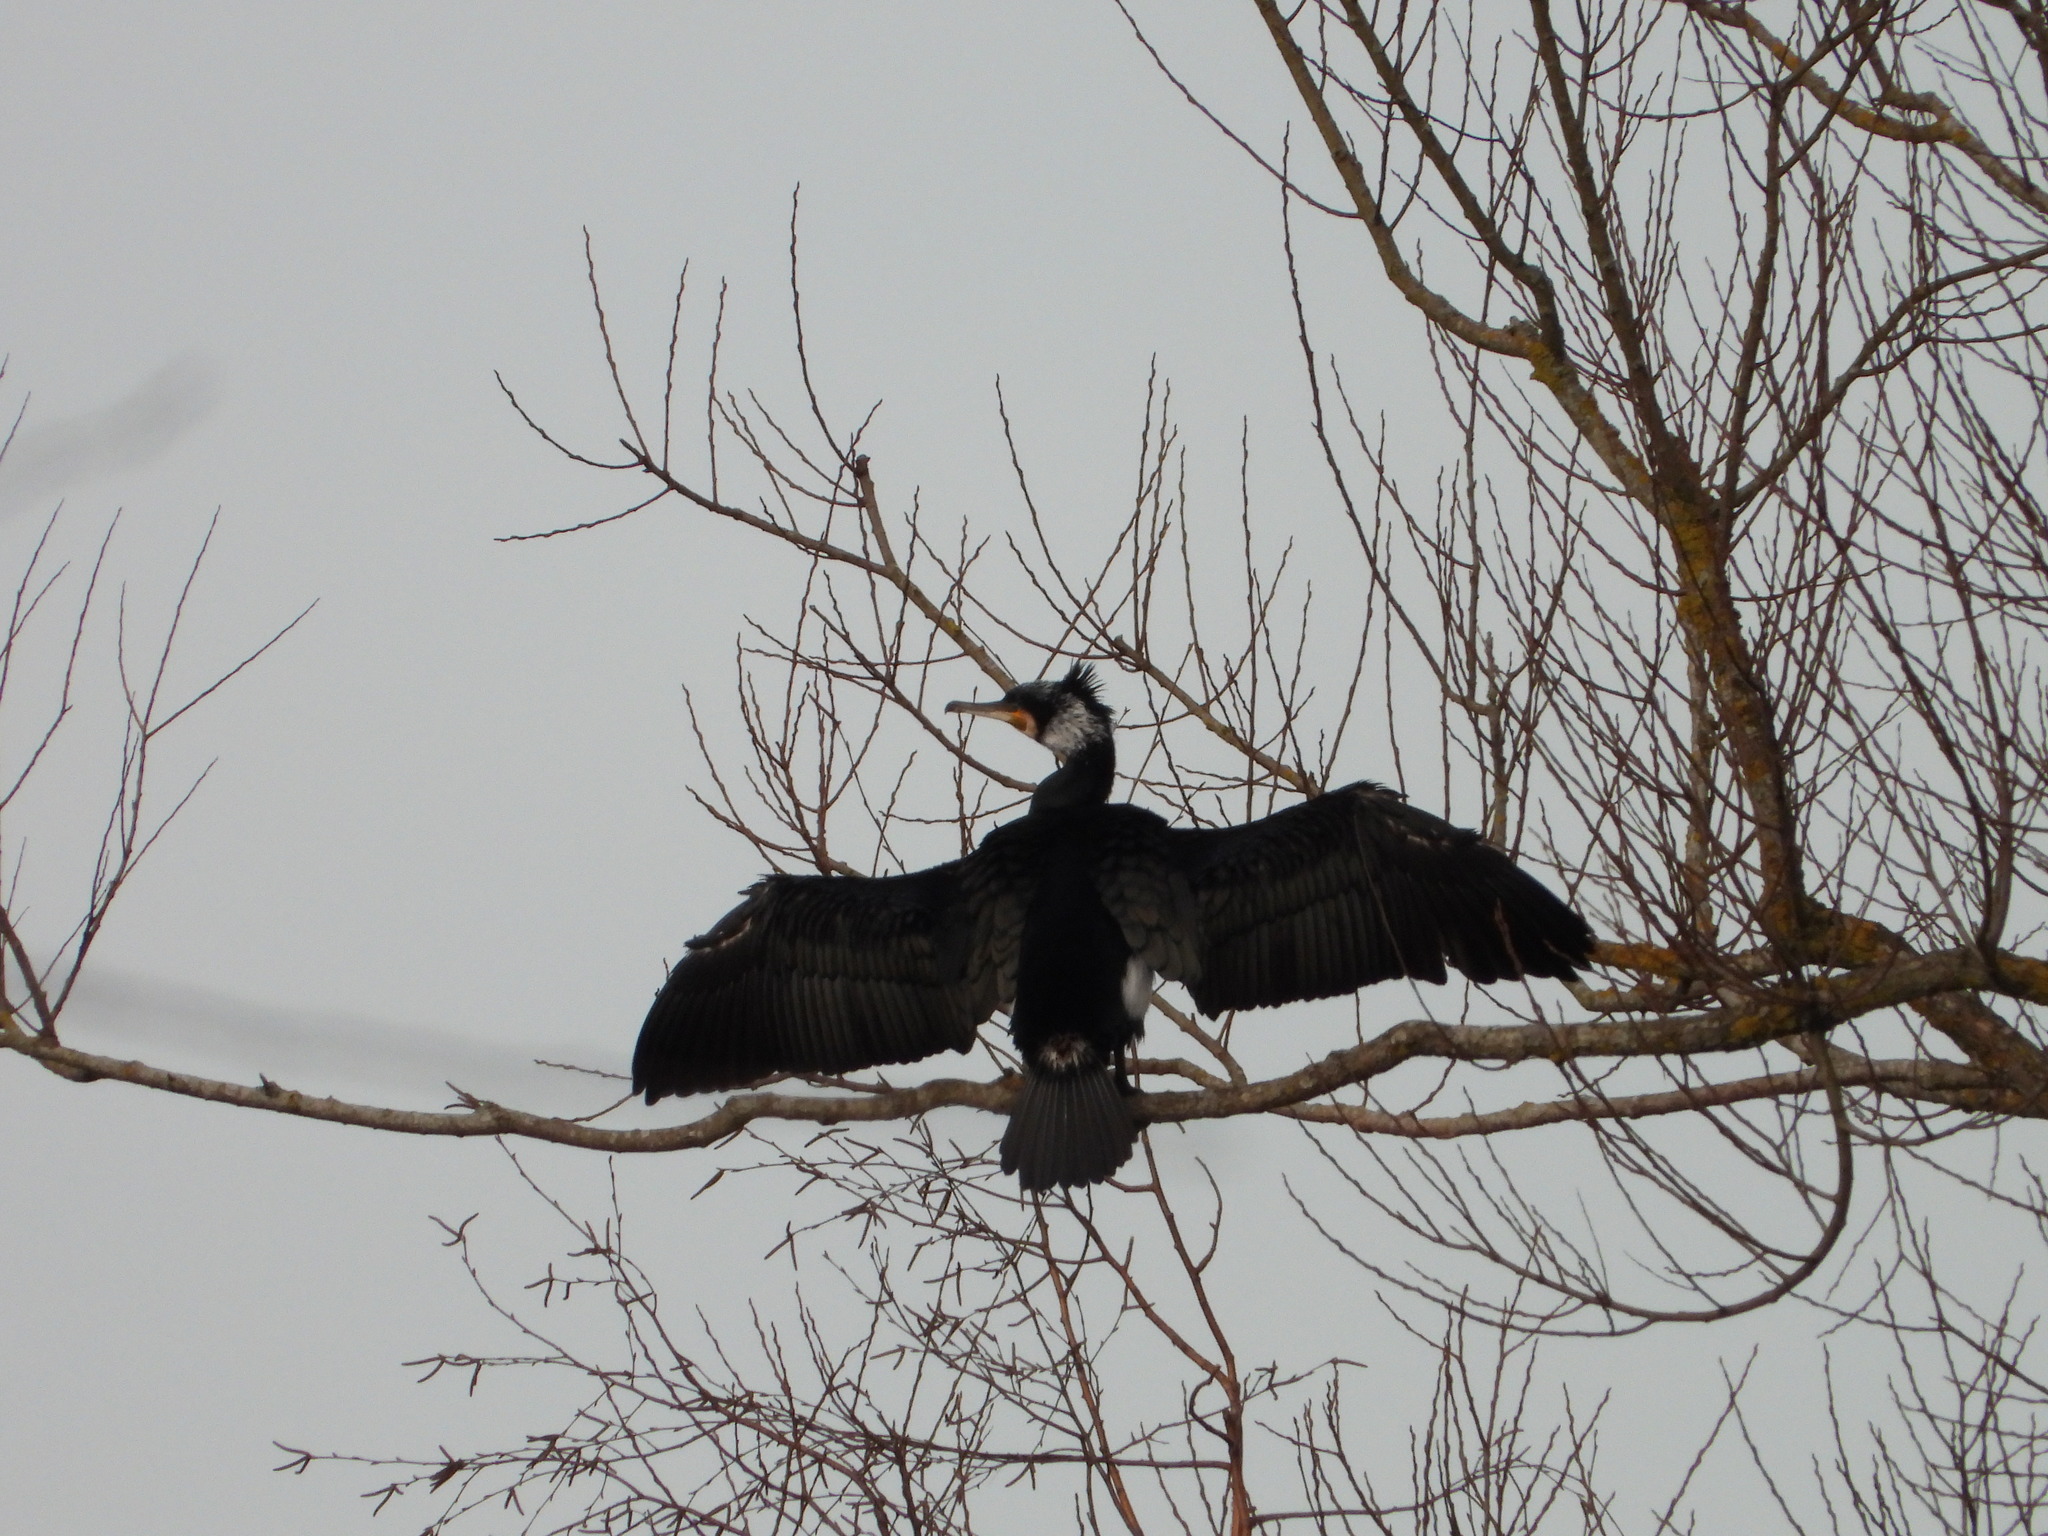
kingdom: Animalia
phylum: Chordata
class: Aves
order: Suliformes
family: Phalacrocoracidae
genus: Phalacrocorax
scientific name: Phalacrocorax carbo
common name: Great cormorant
